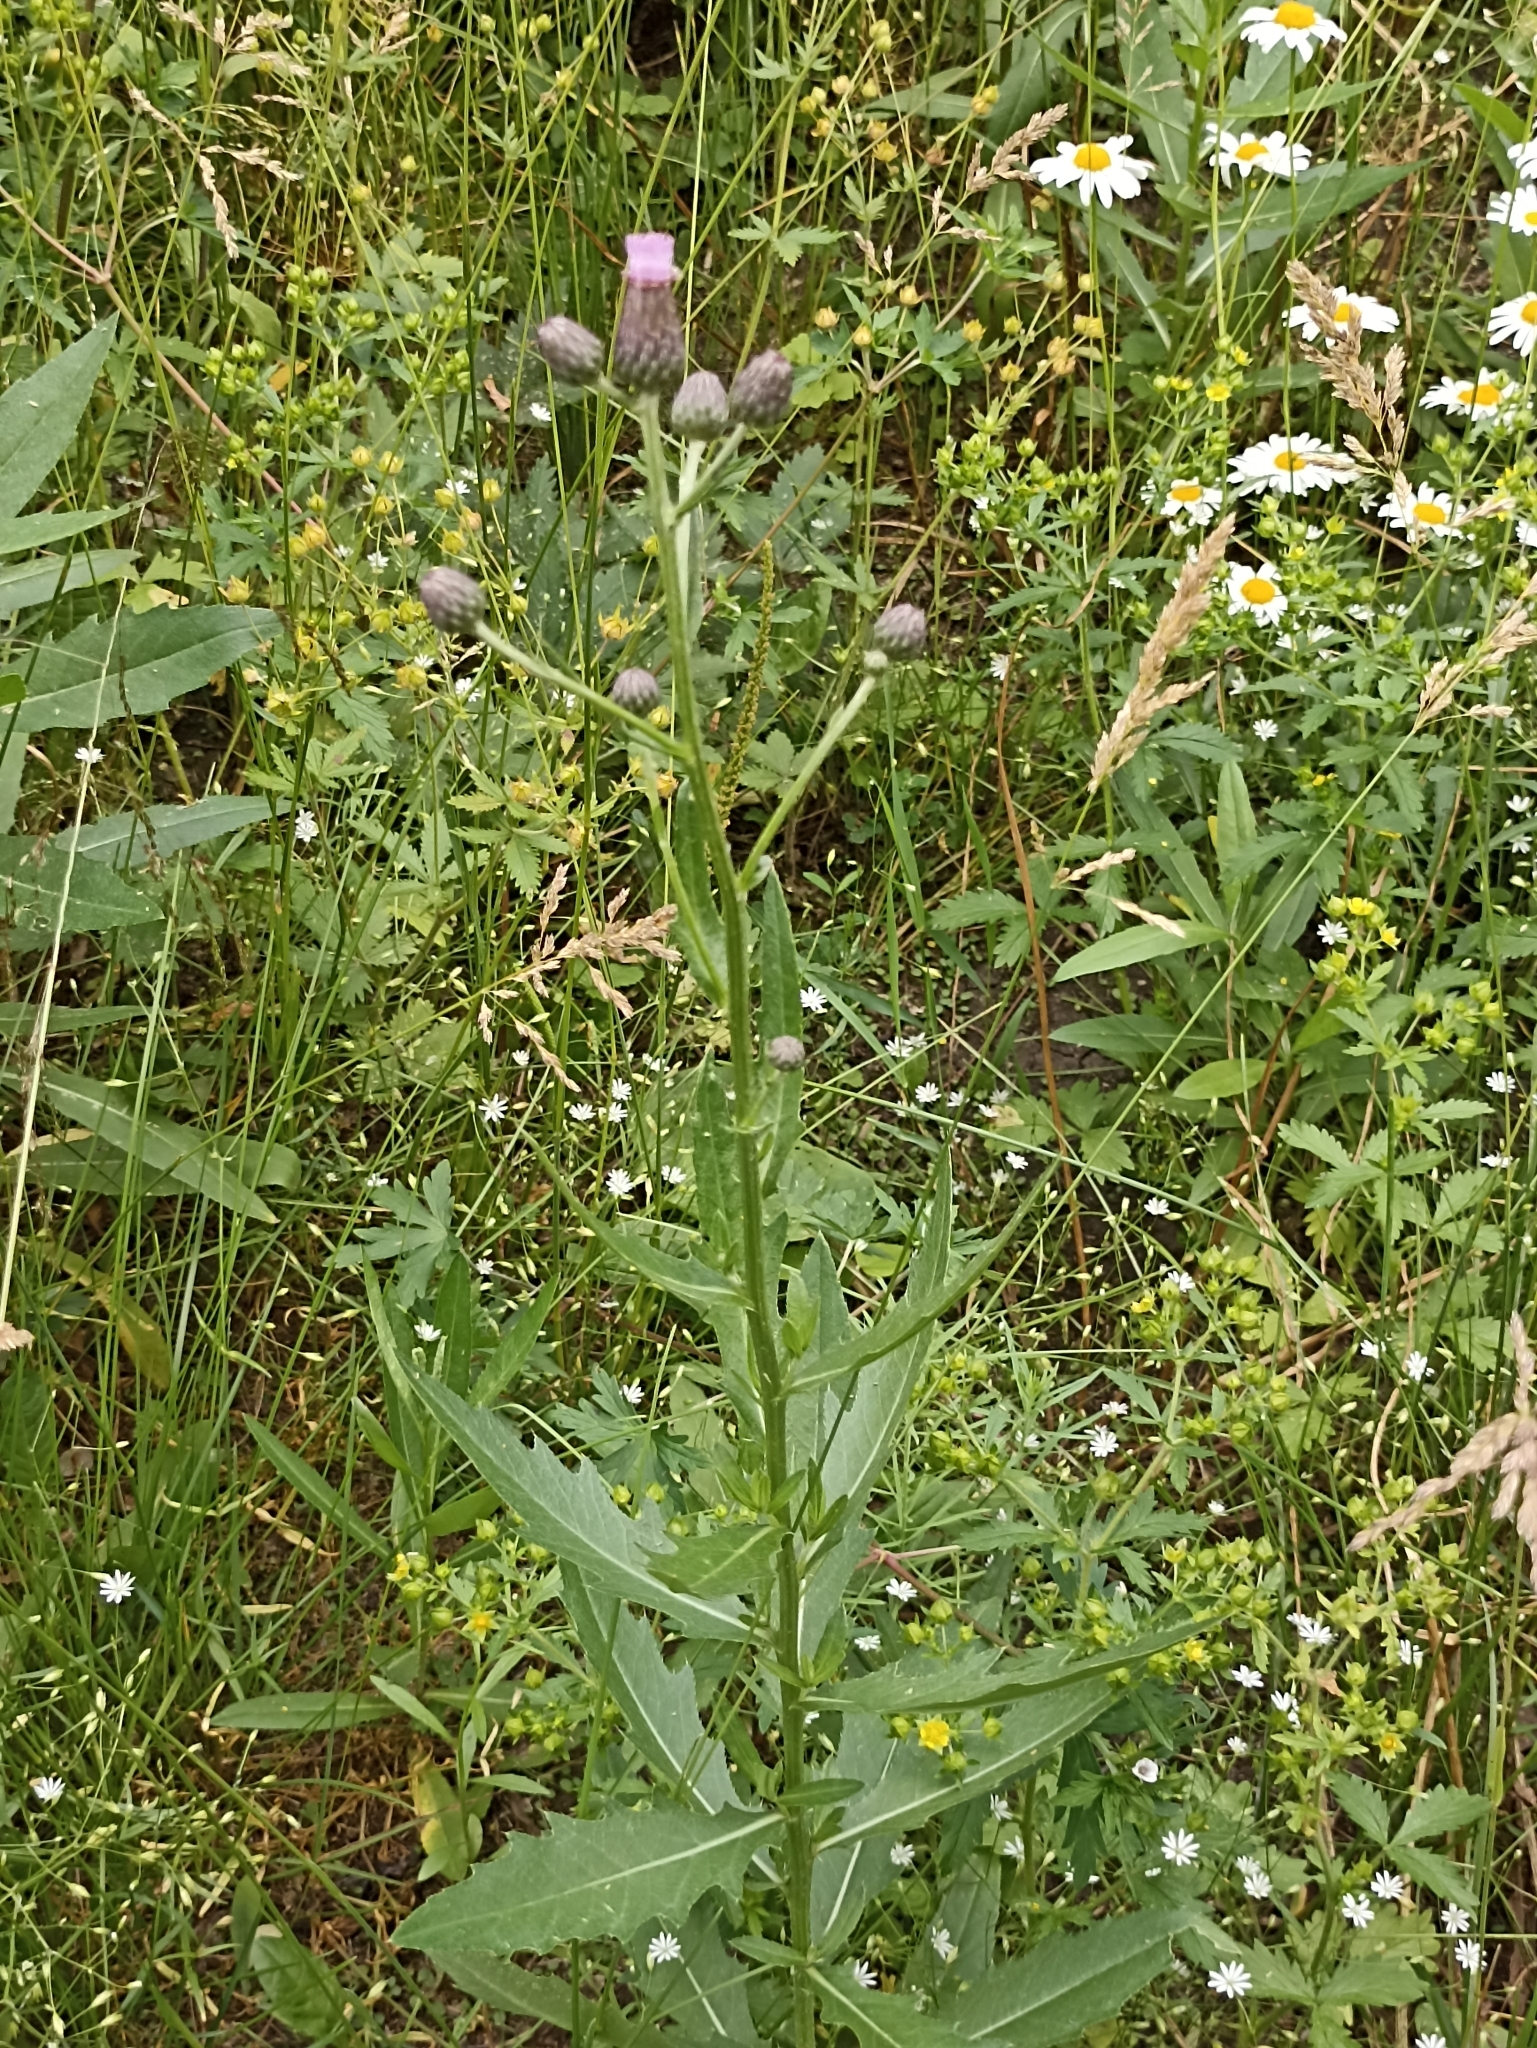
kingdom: Plantae
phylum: Tracheophyta
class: Magnoliopsida
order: Asterales
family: Asteraceae
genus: Cirsium
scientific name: Cirsium arvense
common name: Creeping thistle
